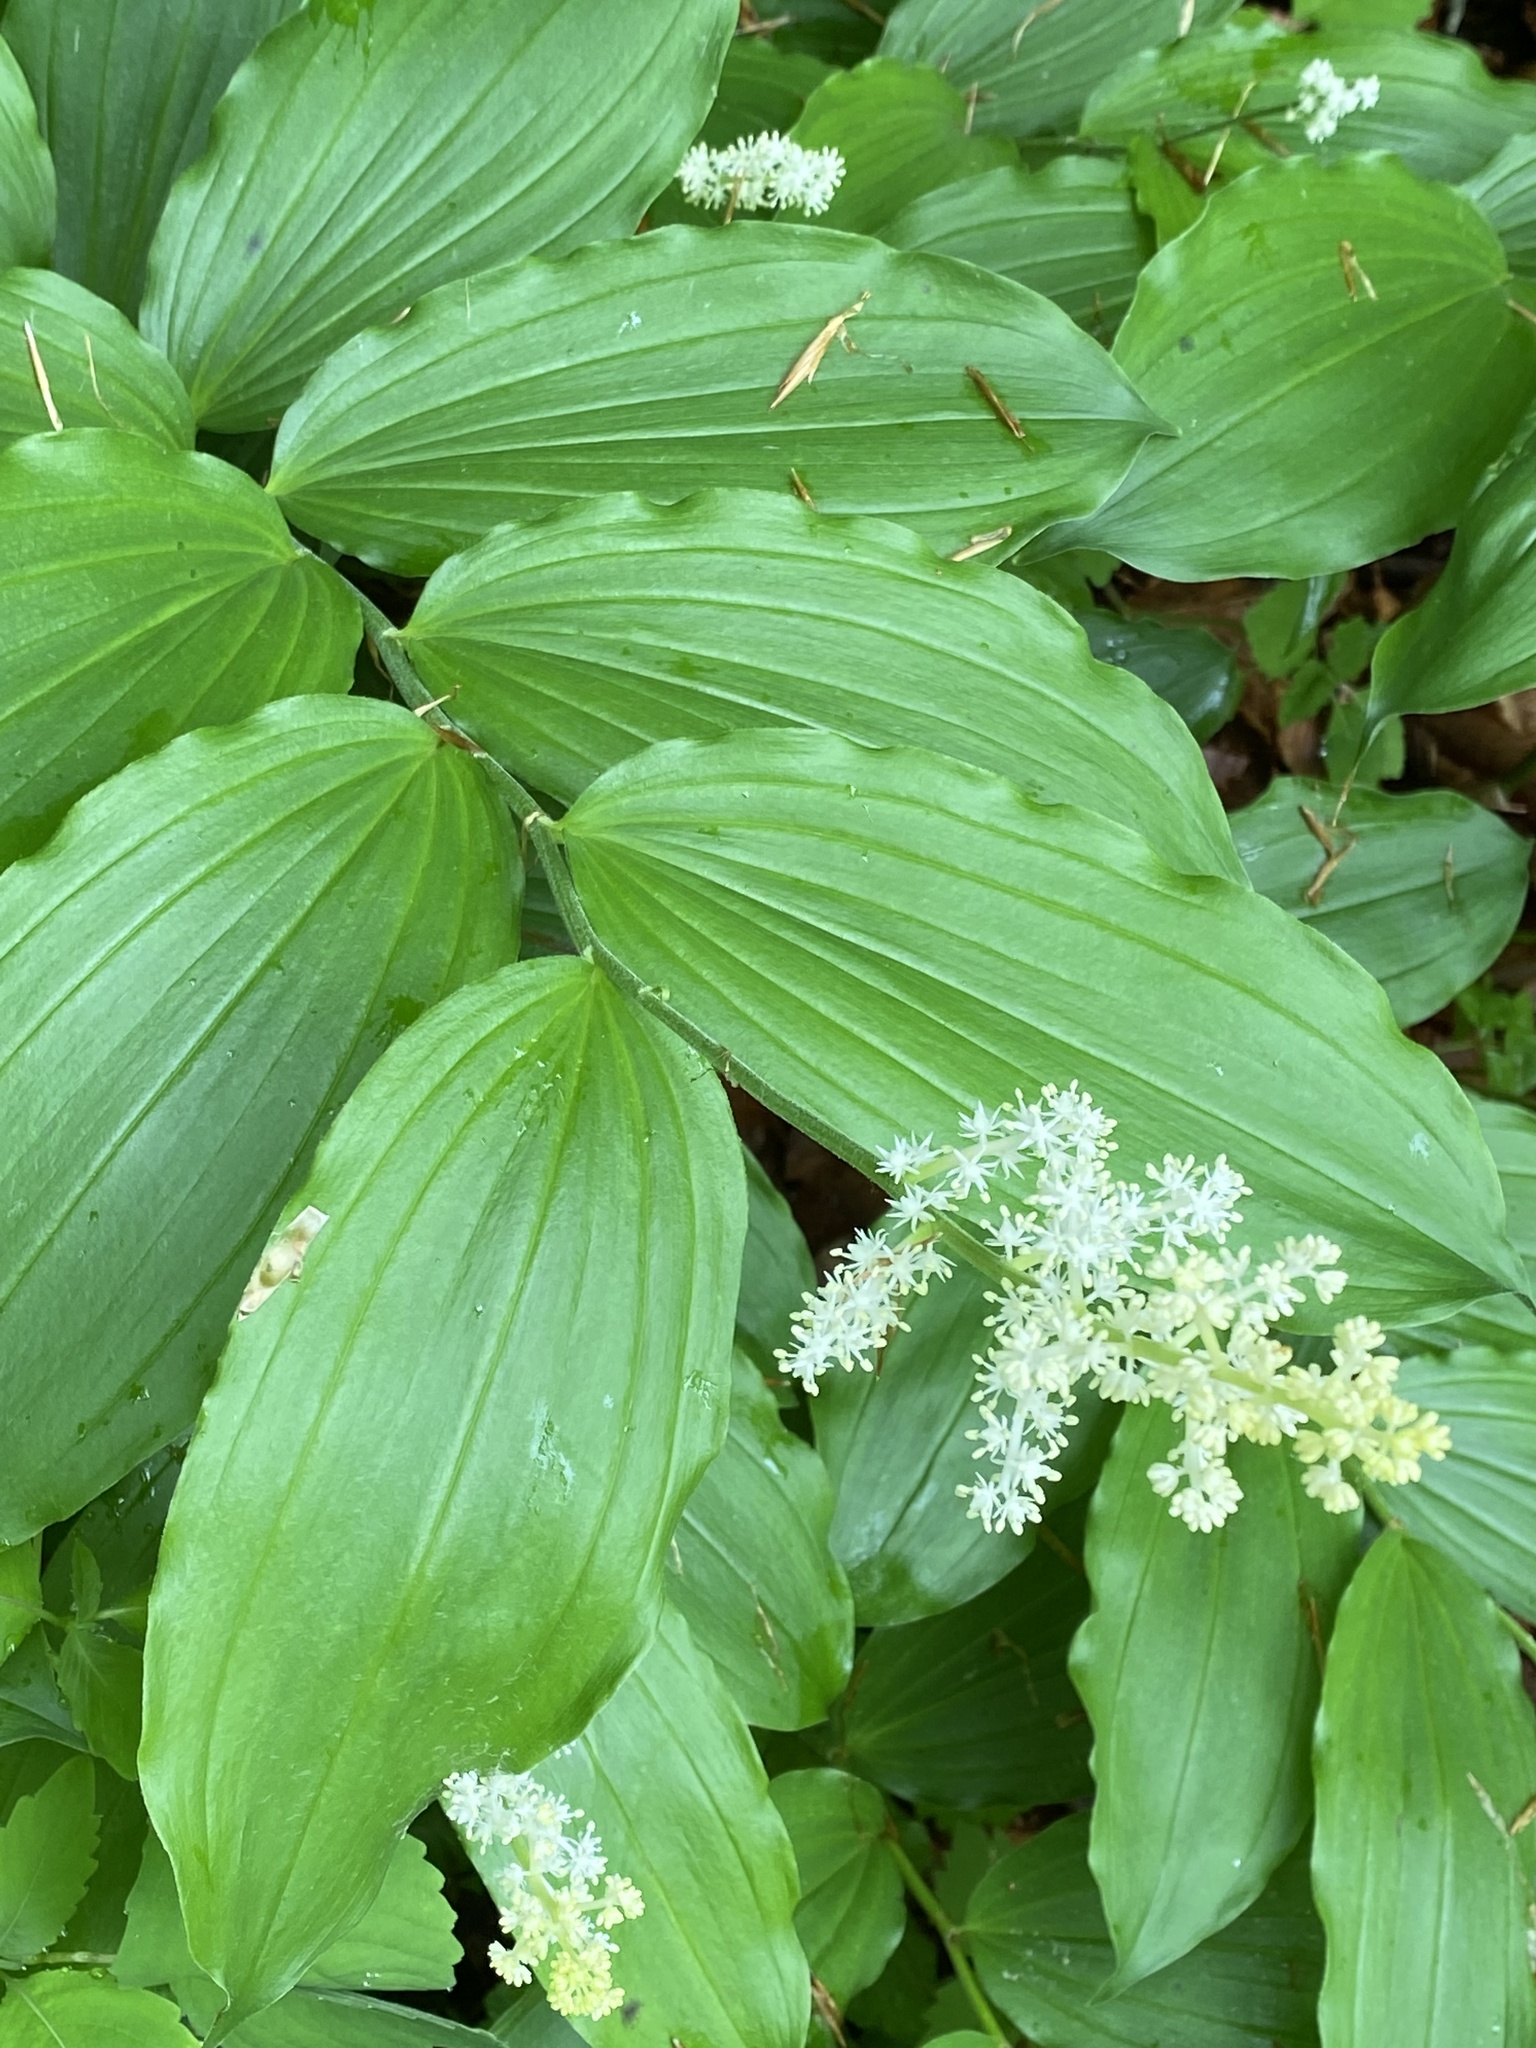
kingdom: Plantae
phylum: Tracheophyta
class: Liliopsida
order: Asparagales
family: Asparagaceae
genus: Maianthemum
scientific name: Maianthemum racemosum
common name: False spikenard
